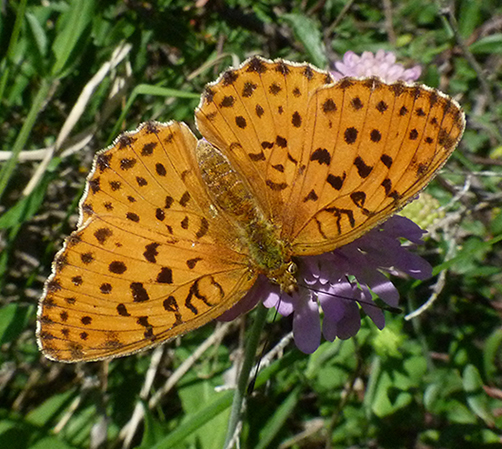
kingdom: Animalia
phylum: Arthropoda
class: Insecta
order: Lepidoptera
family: Nymphalidae
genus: Brenthis
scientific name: Brenthis daphne
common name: Marbled fritillary
